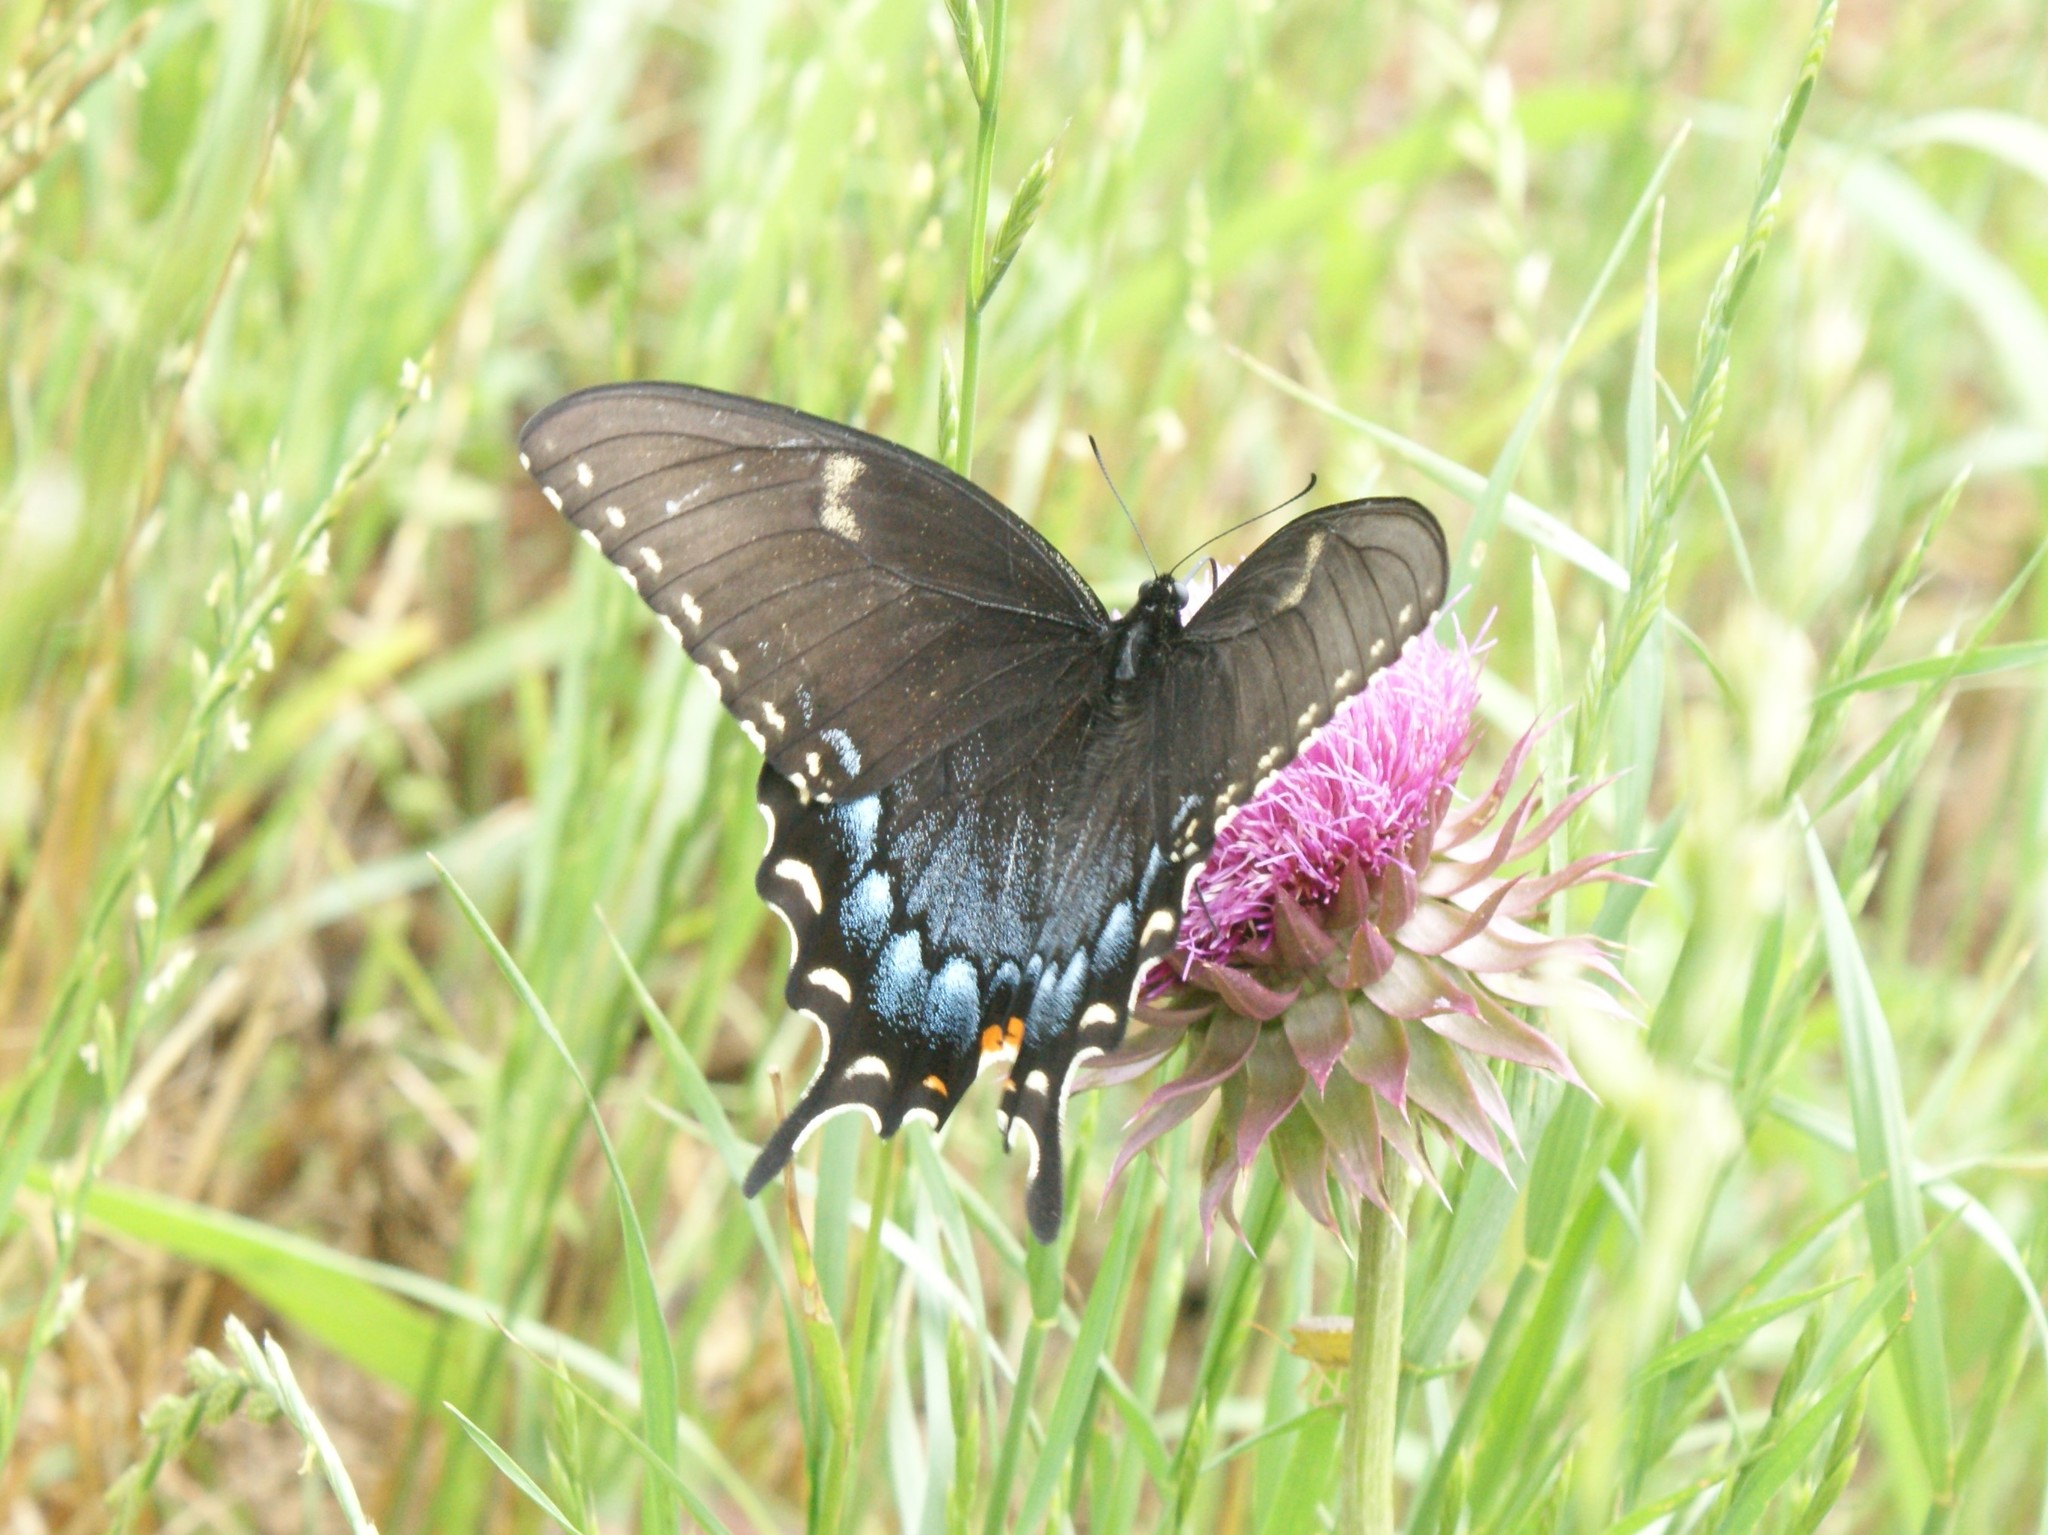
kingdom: Animalia
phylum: Arthropoda
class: Insecta
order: Lepidoptera
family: Papilionidae
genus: Papilio
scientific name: Papilio glaucus
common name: Tiger swallowtail
